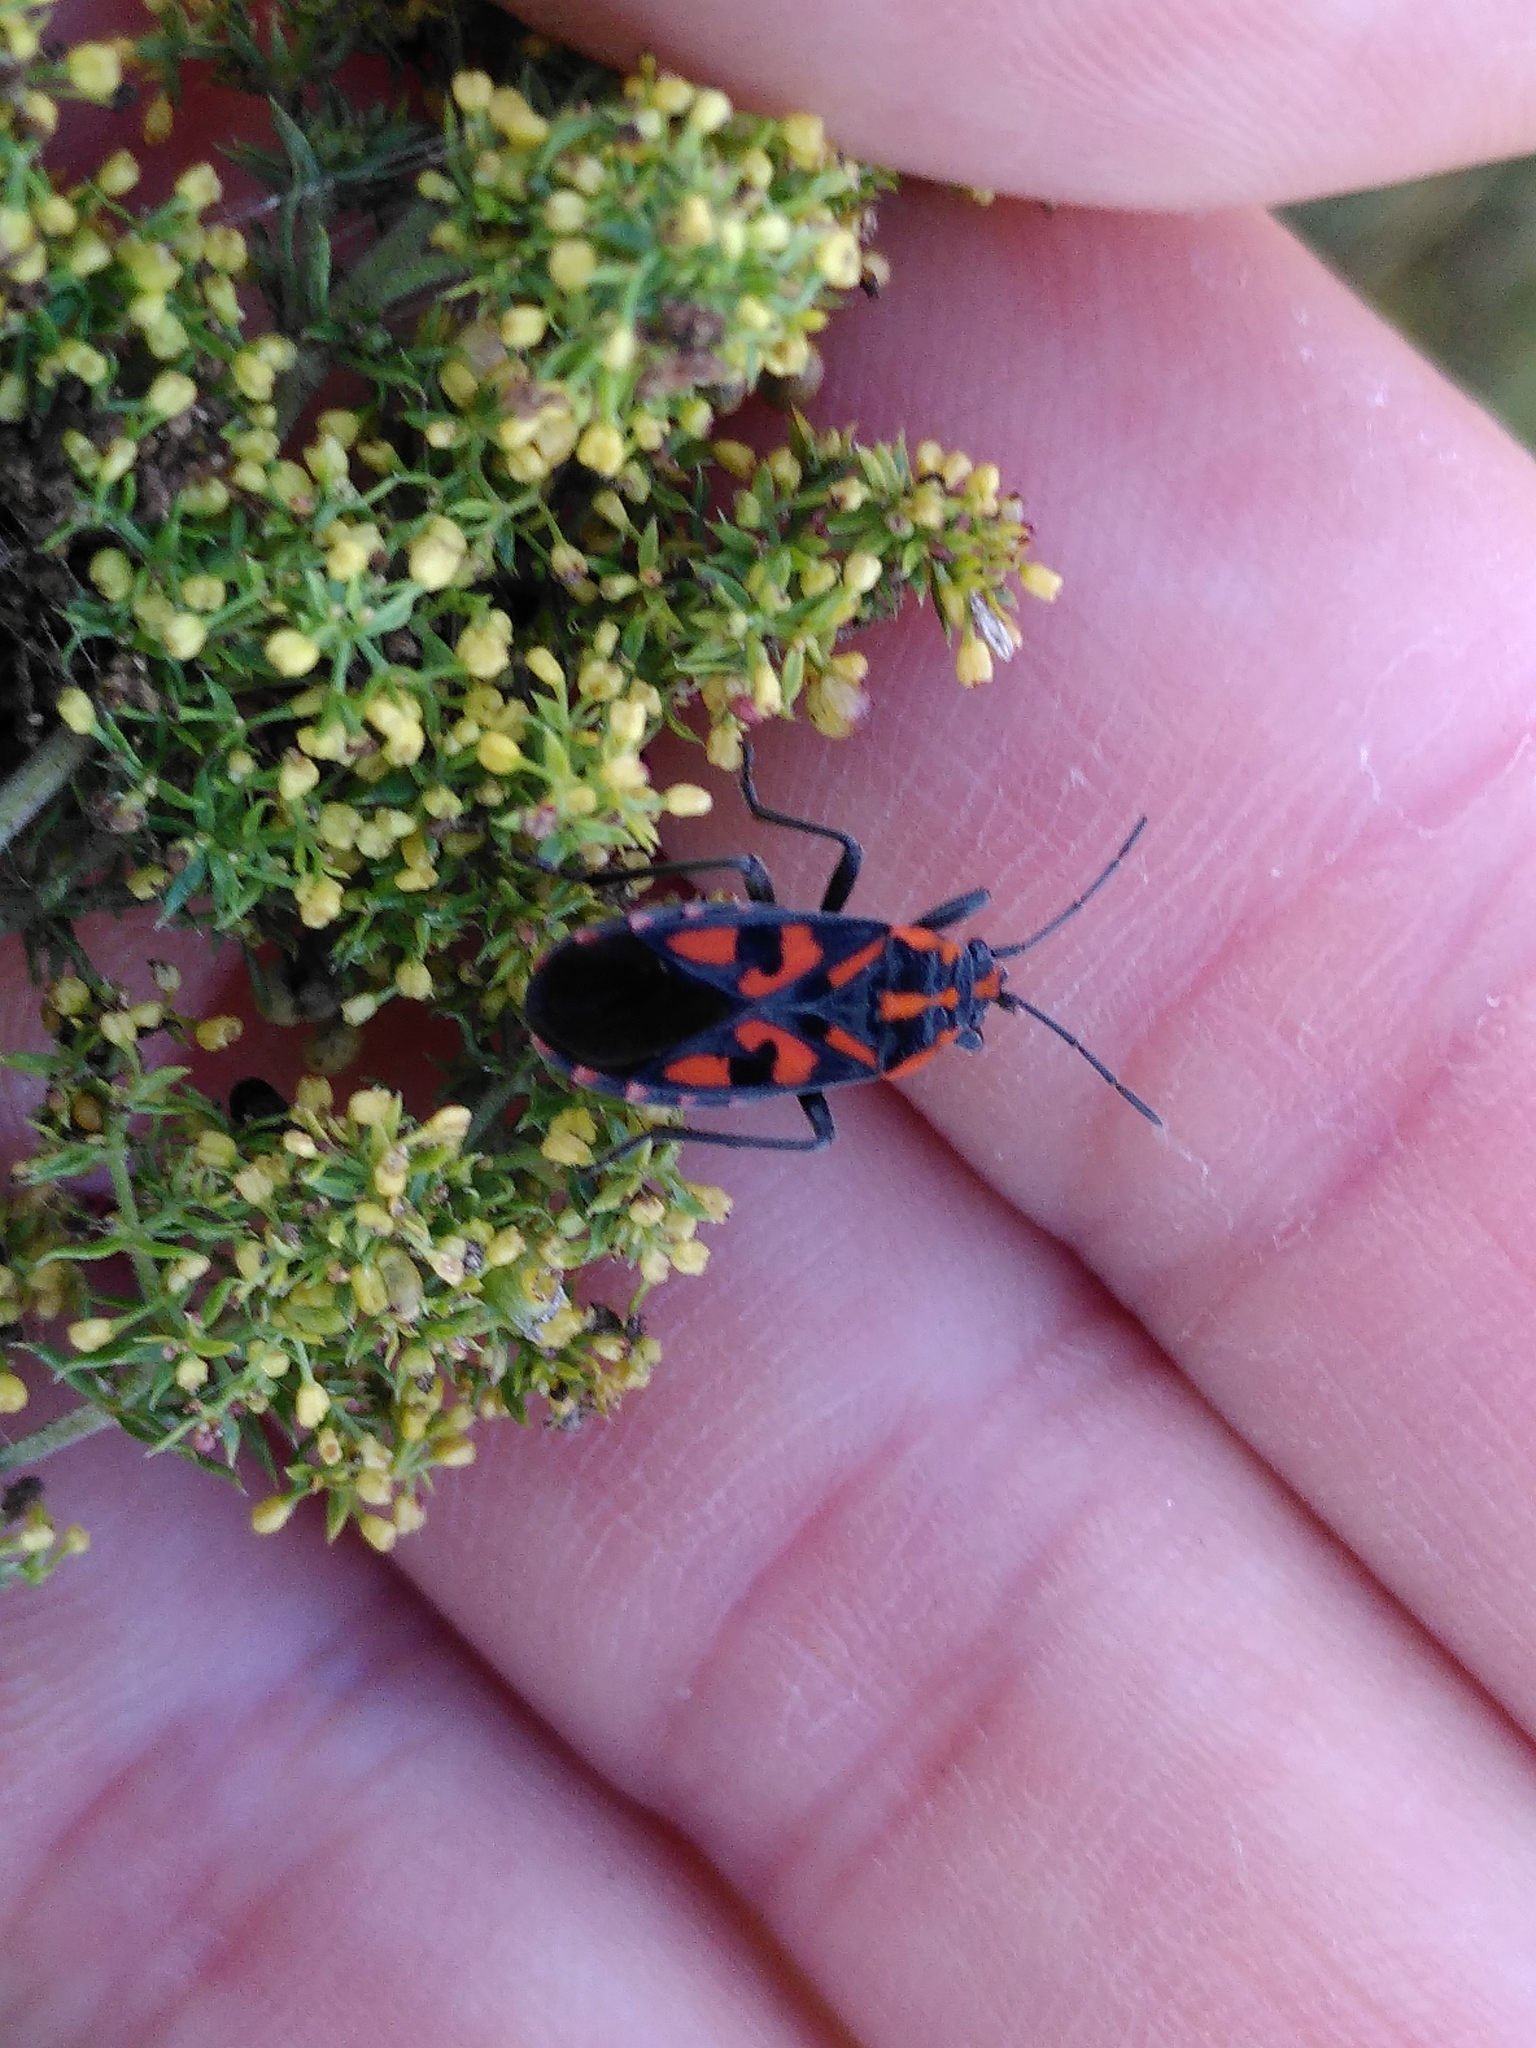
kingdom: Animalia
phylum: Arthropoda
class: Insecta
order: Hemiptera
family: Lygaeidae
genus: Spilostethus
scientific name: Spilostethus saxatilis
